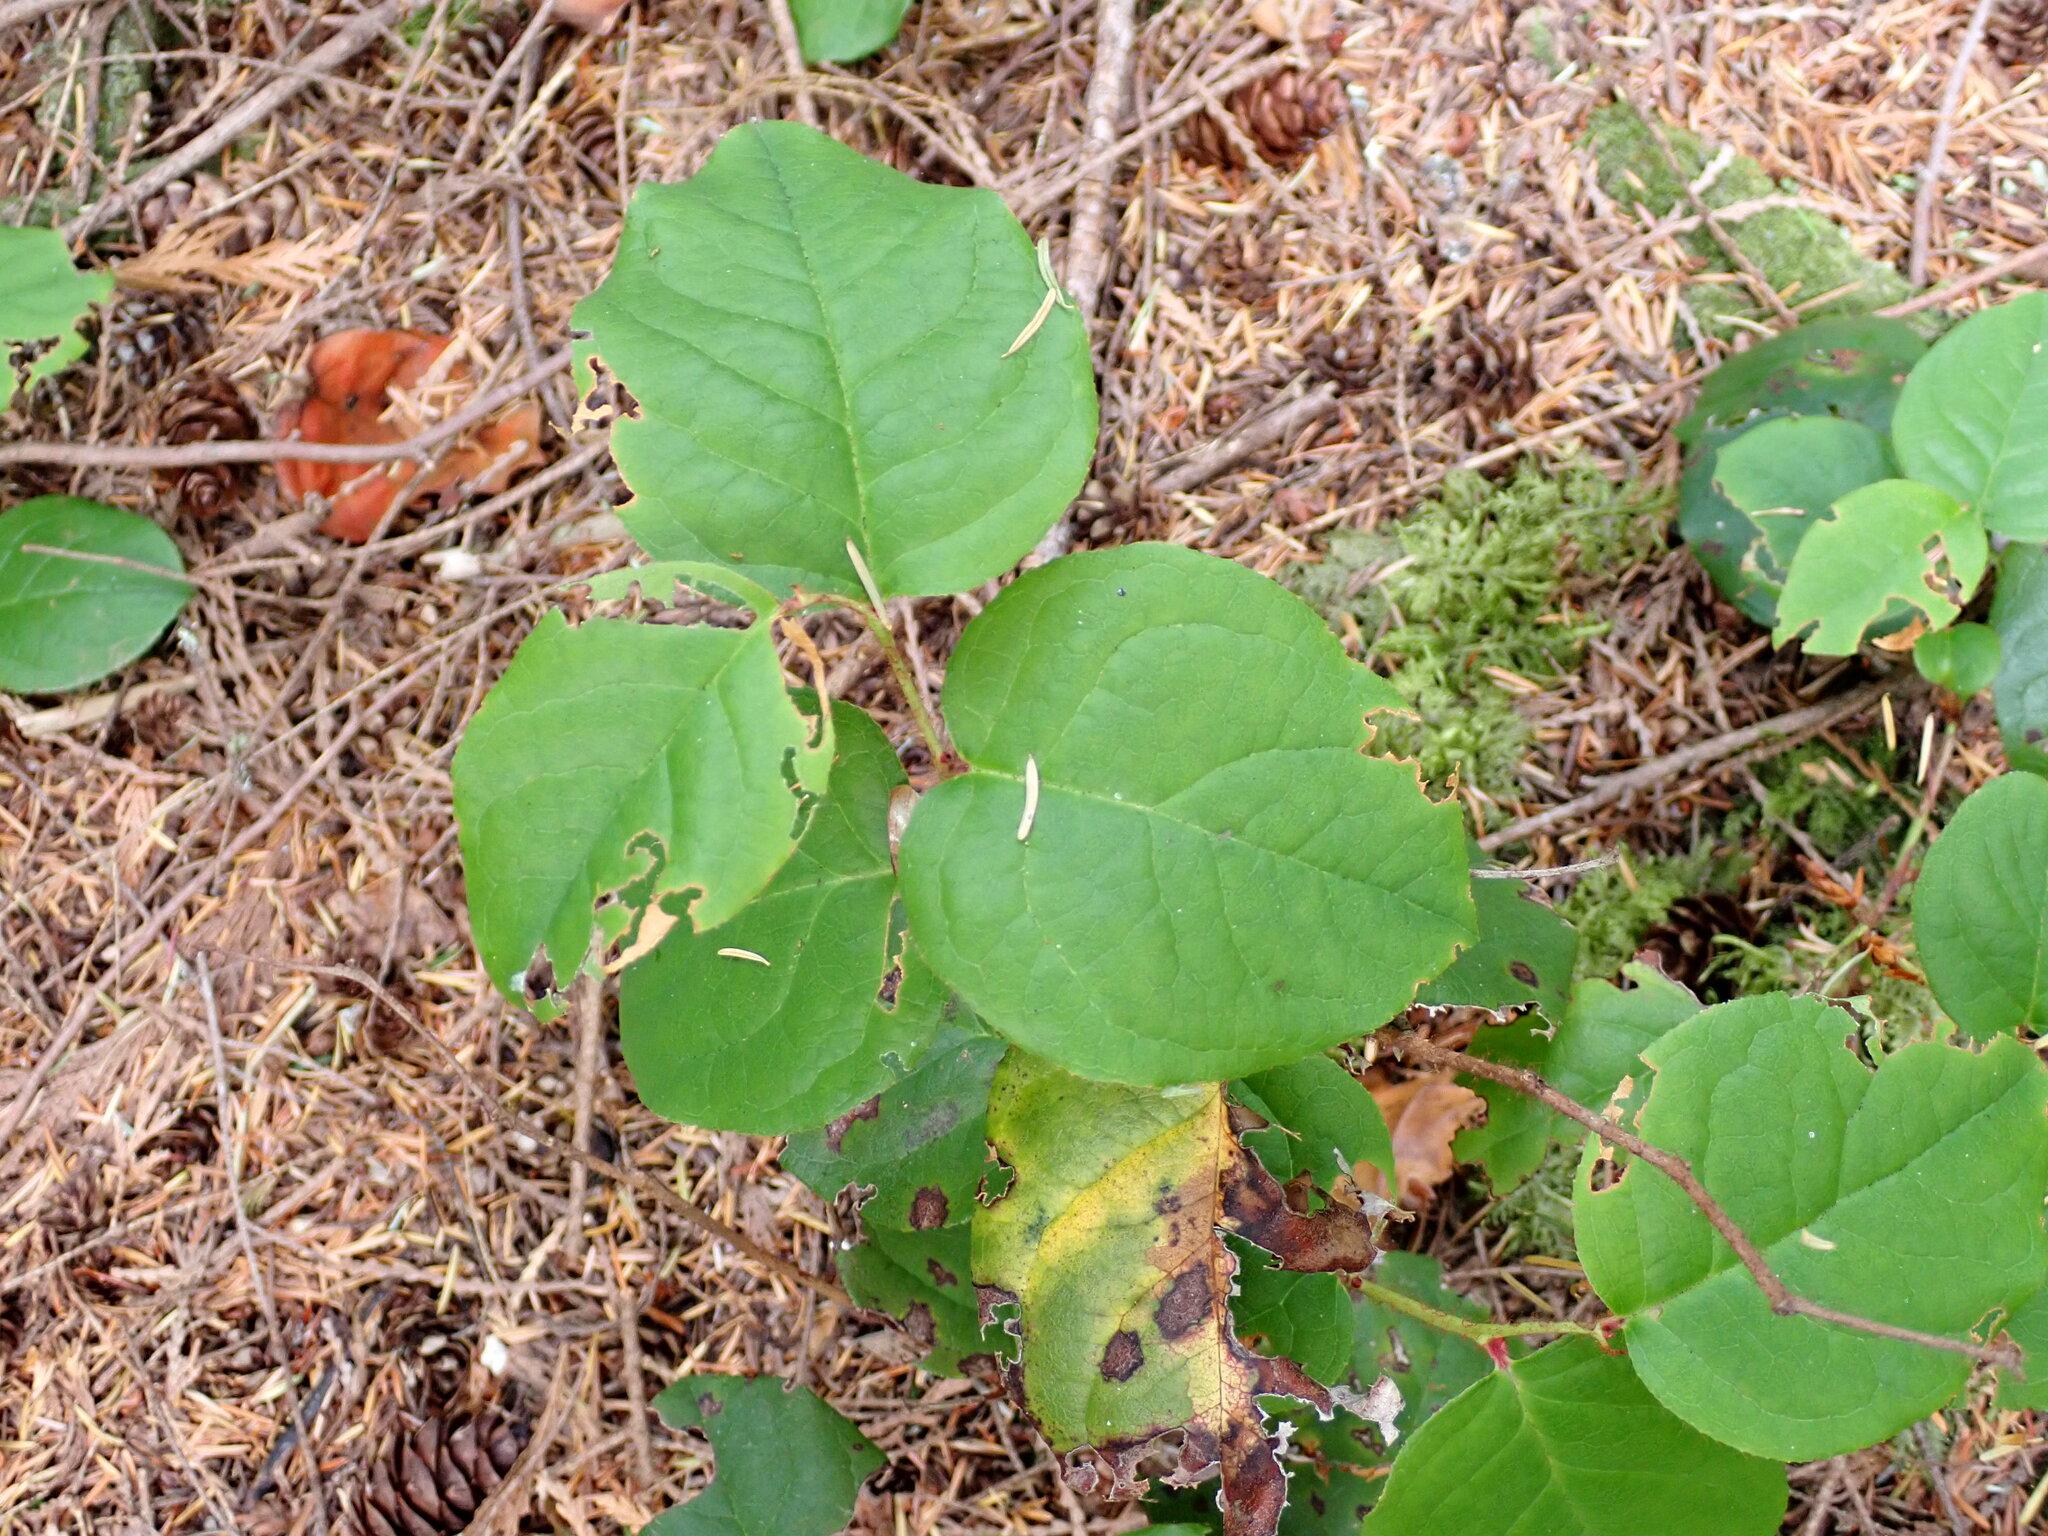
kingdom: Plantae
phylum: Tracheophyta
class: Magnoliopsida
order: Ericales
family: Ericaceae
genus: Gaultheria
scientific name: Gaultheria shallon
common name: Shallon
